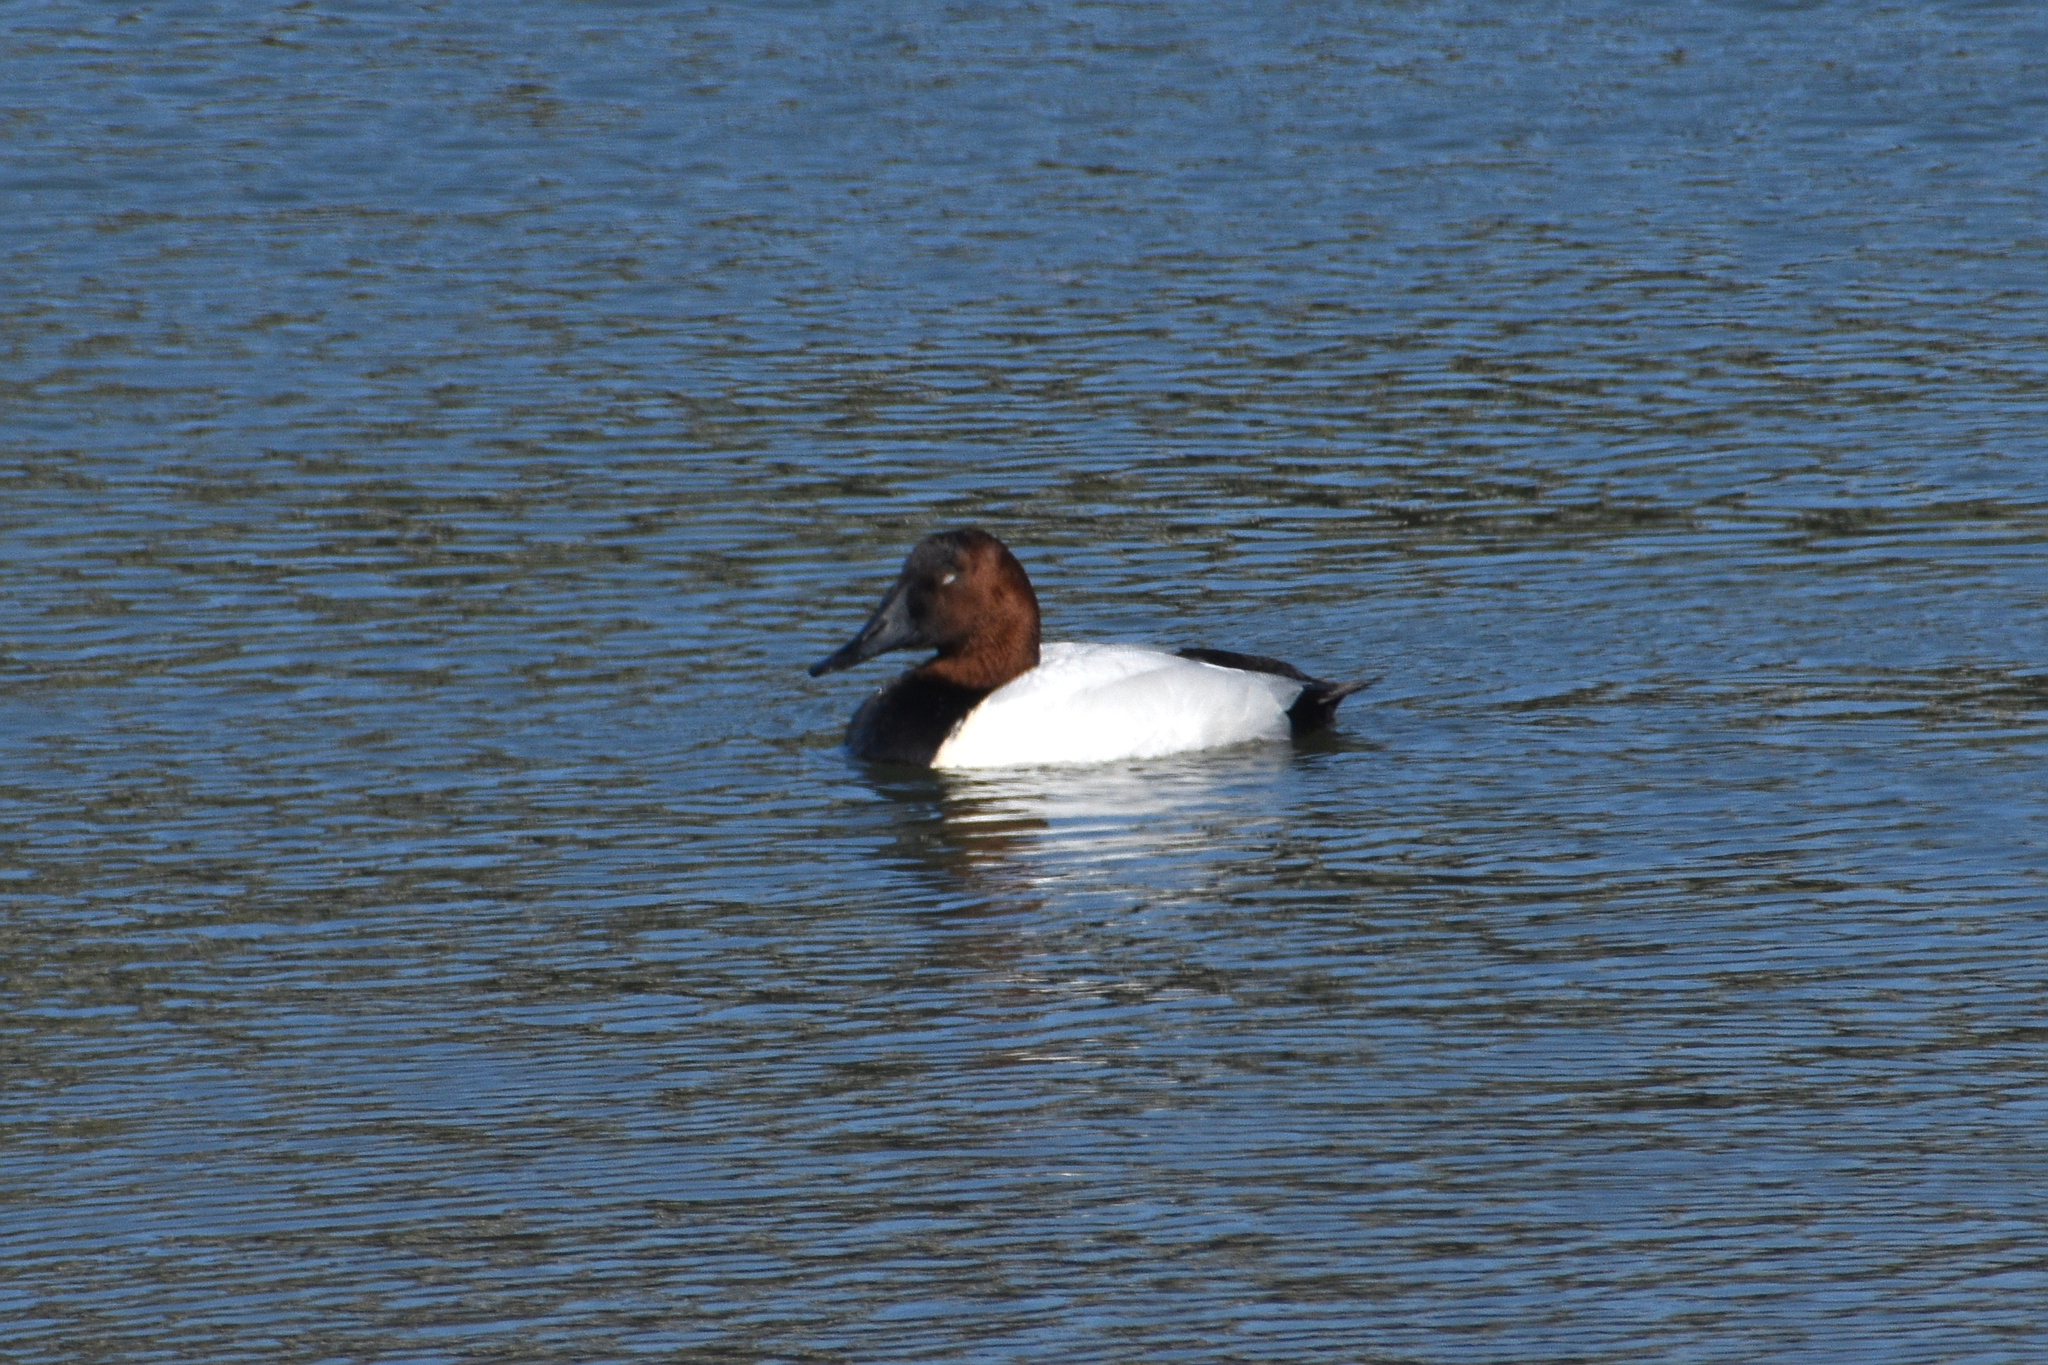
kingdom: Animalia
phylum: Chordata
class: Aves
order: Anseriformes
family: Anatidae
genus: Aythya
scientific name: Aythya valisineria
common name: Canvasback
